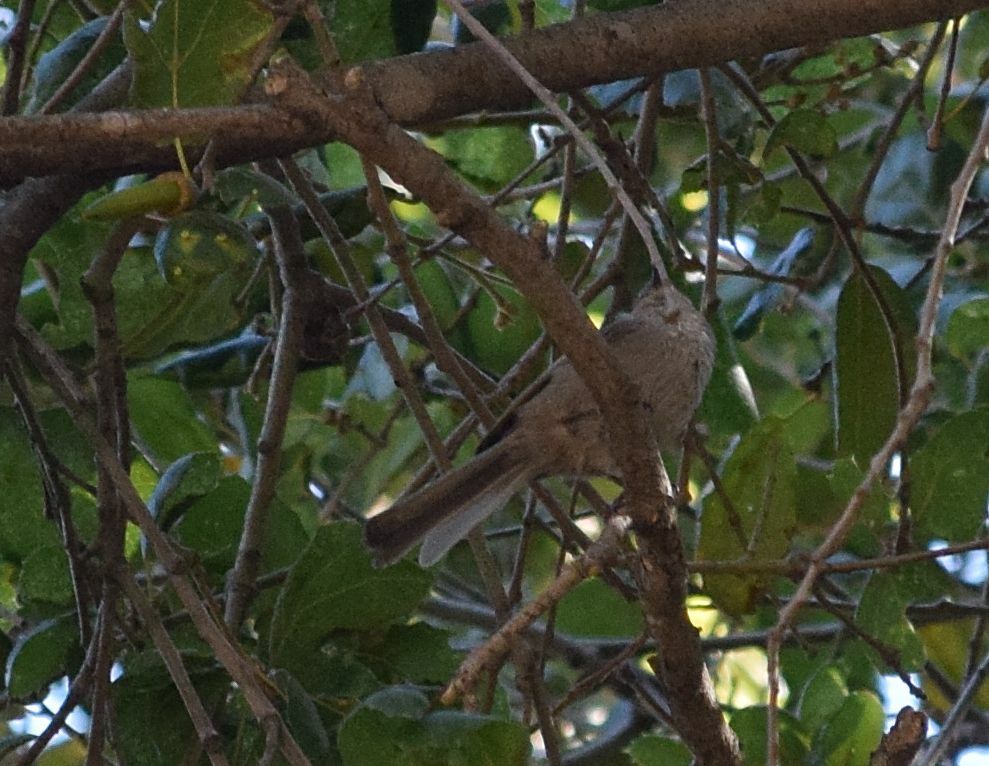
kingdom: Animalia
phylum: Chordata
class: Aves
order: Passeriformes
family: Aegithalidae
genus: Psaltriparus
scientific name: Psaltriparus minimus
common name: American bushtit
